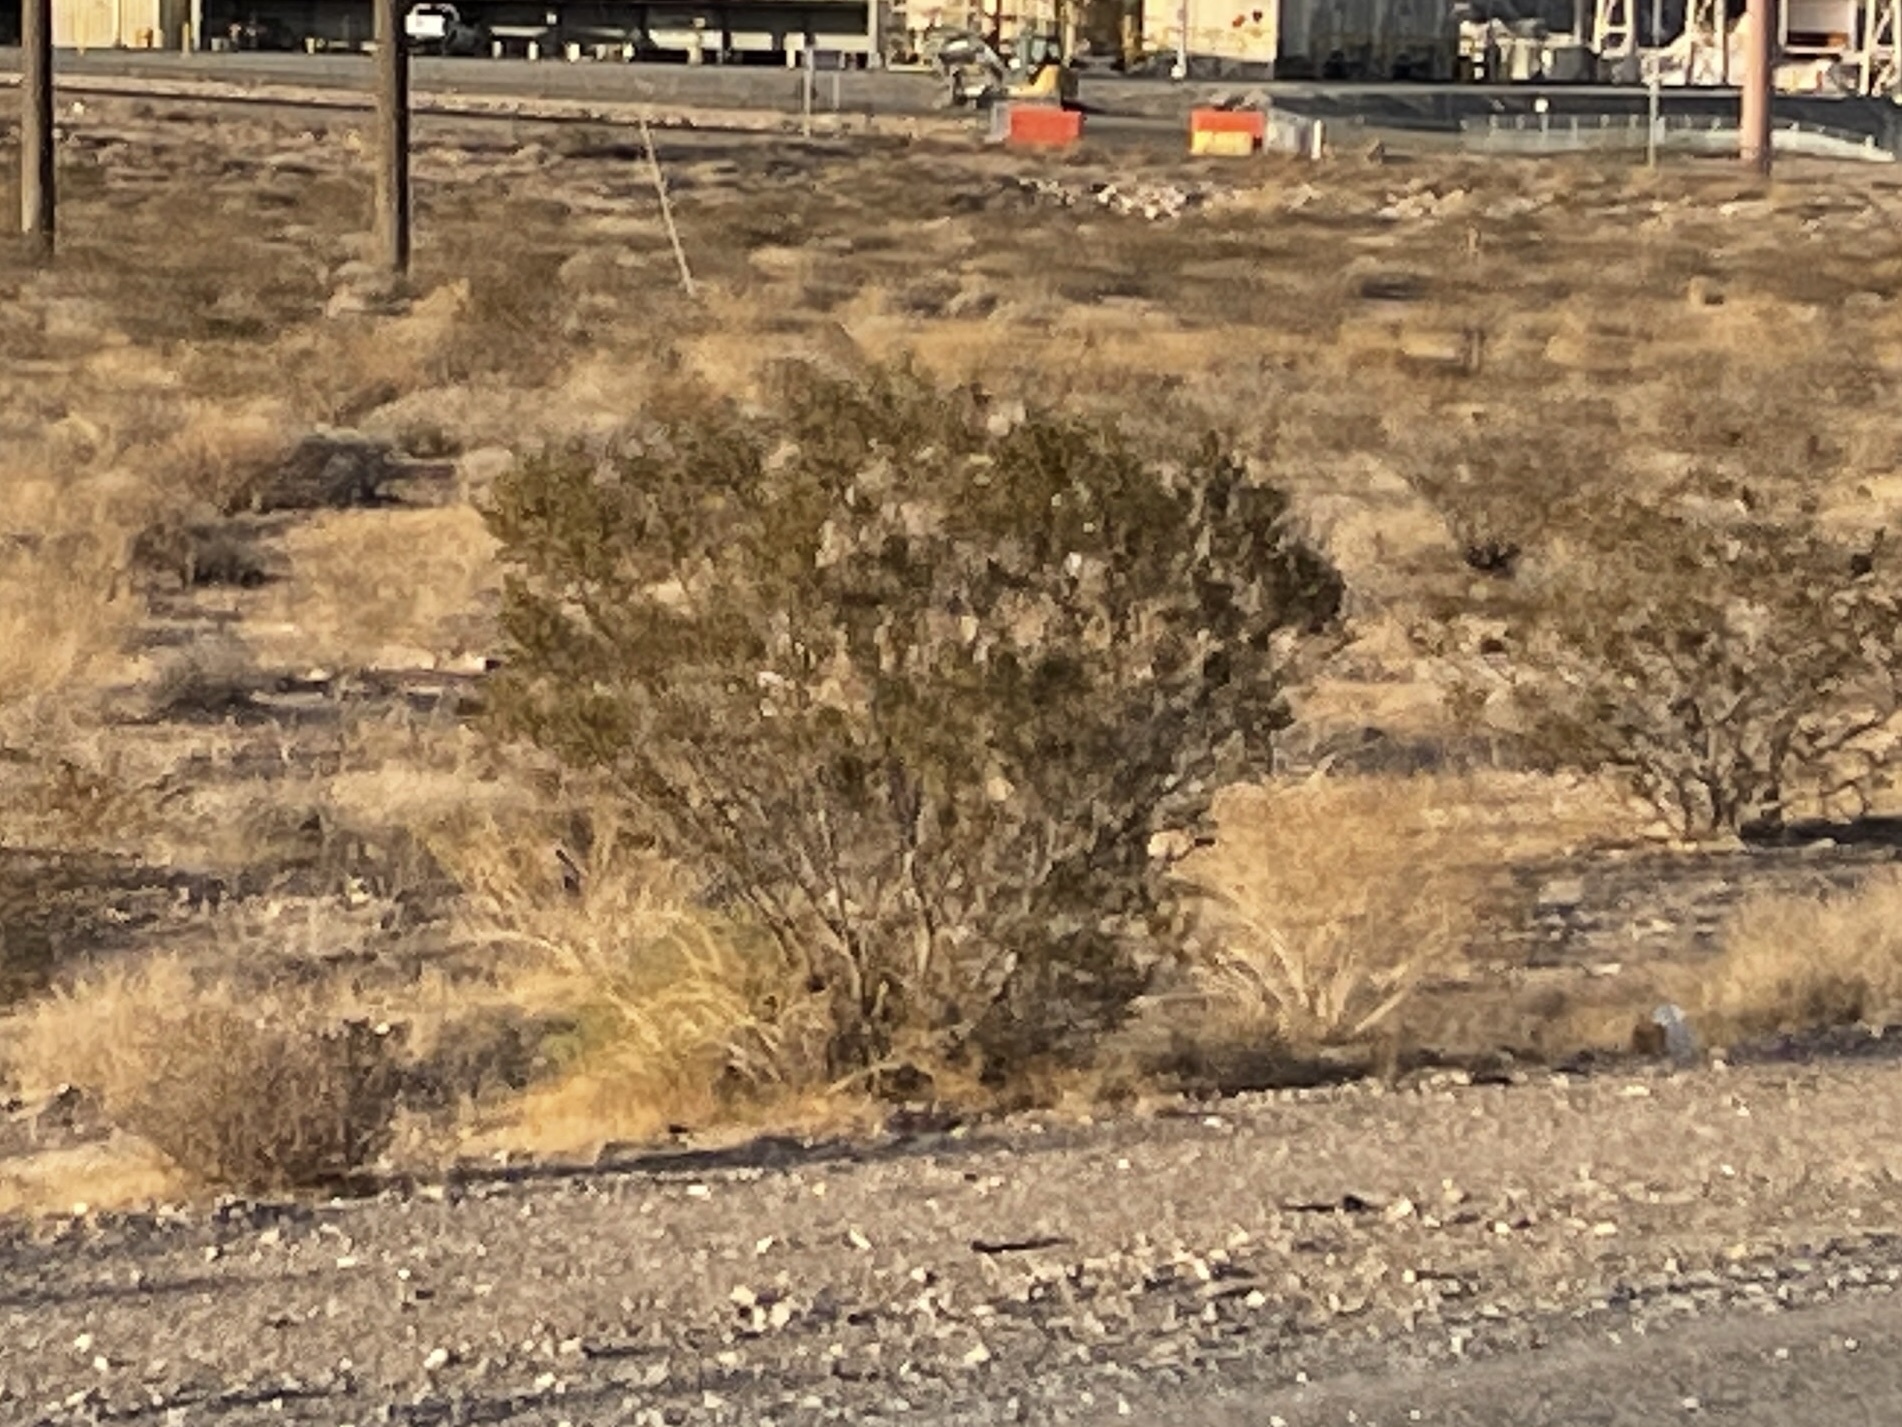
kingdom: Plantae
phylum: Tracheophyta
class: Magnoliopsida
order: Zygophyllales
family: Zygophyllaceae
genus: Larrea
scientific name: Larrea tridentata
